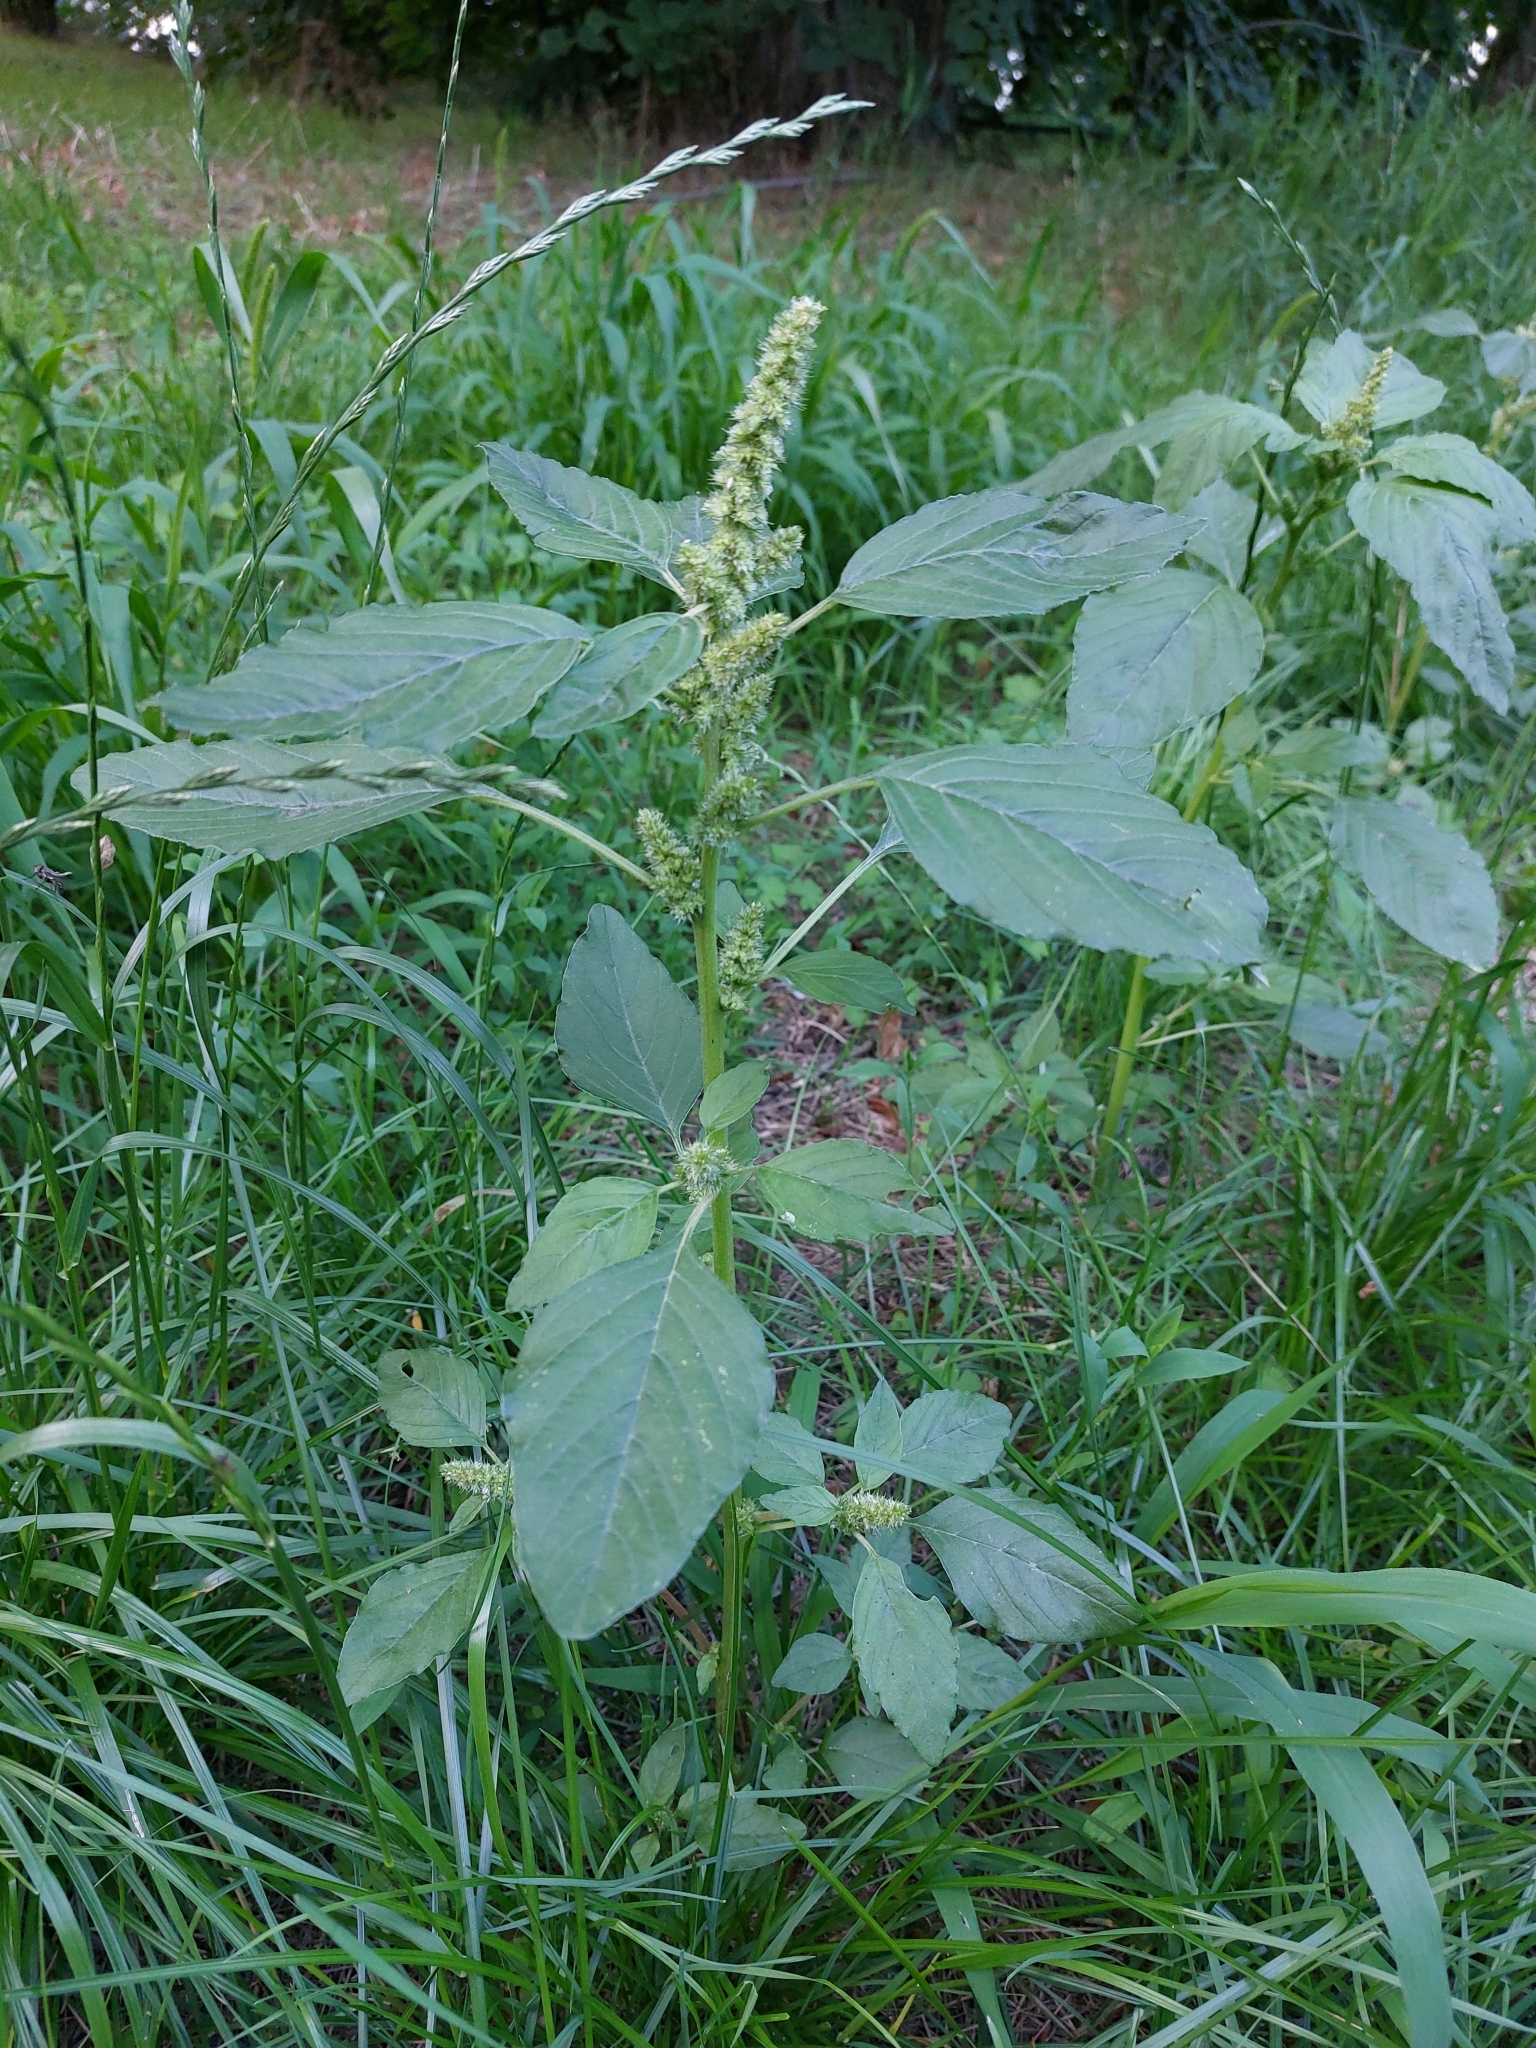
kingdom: Plantae
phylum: Tracheophyta
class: Magnoliopsida
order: Caryophyllales
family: Amaranthaceae
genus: Amaranthus
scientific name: Amaranthus retroflexus
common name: Redroot amaranth
